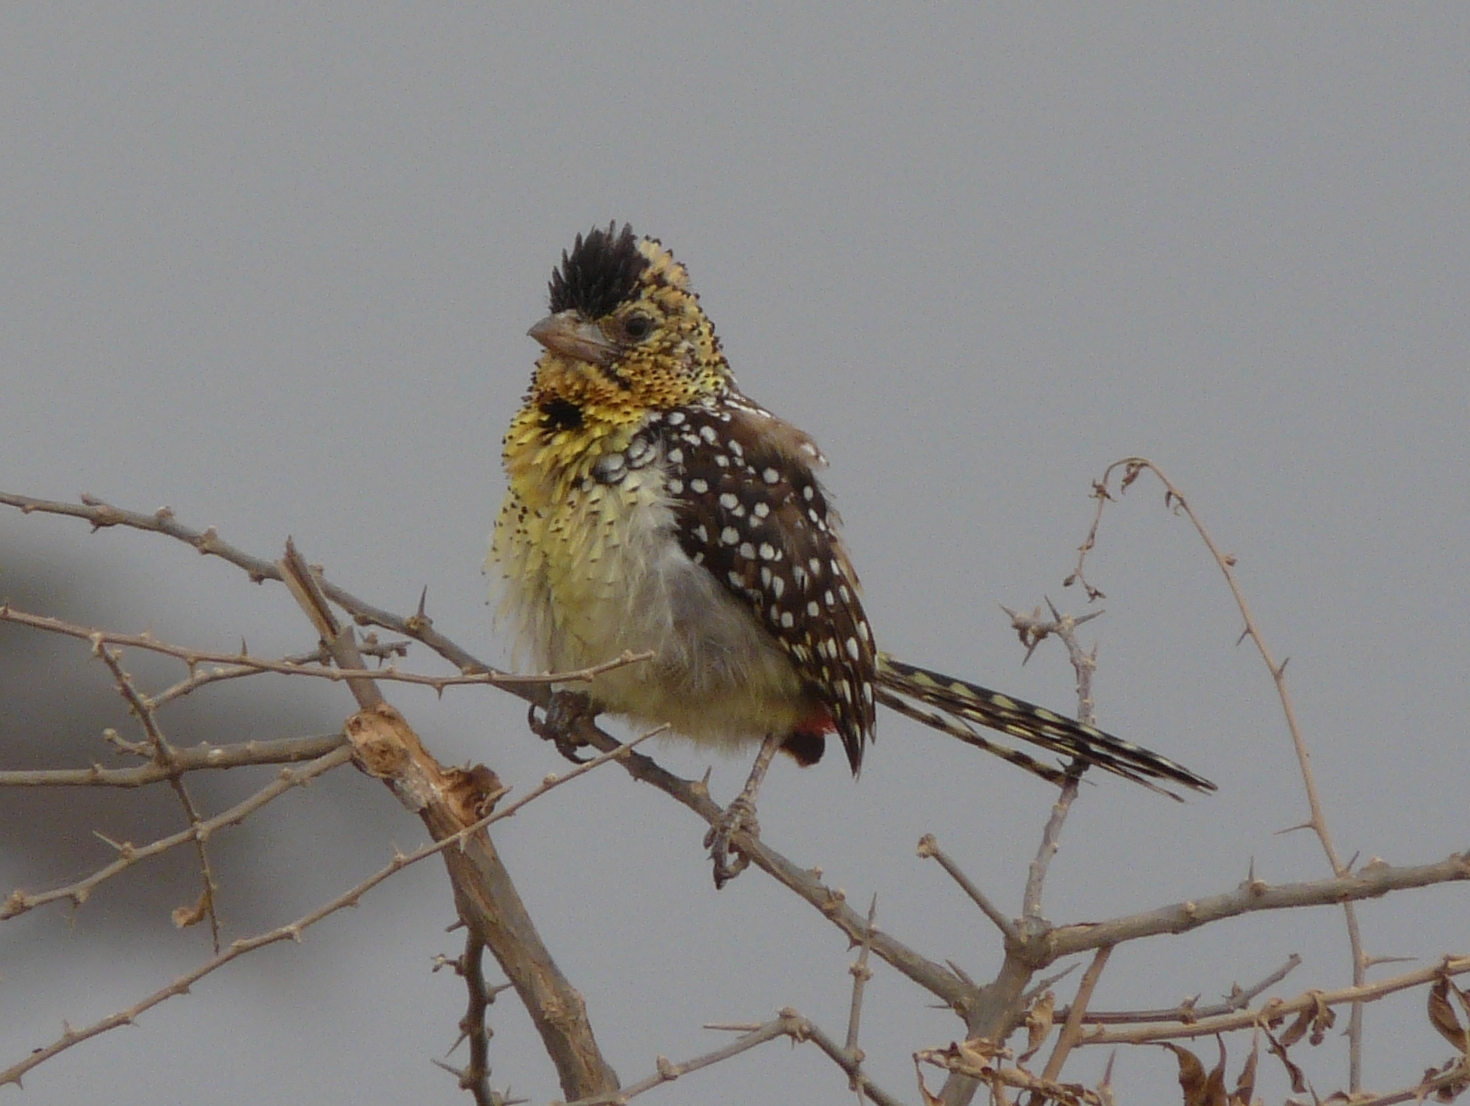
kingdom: Animalia
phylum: Chordata
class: Aves
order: Piciformes
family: Lybiidae
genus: Trachyphonus
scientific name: Trachyphonus darnaudii
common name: D'arnaud's barbet
